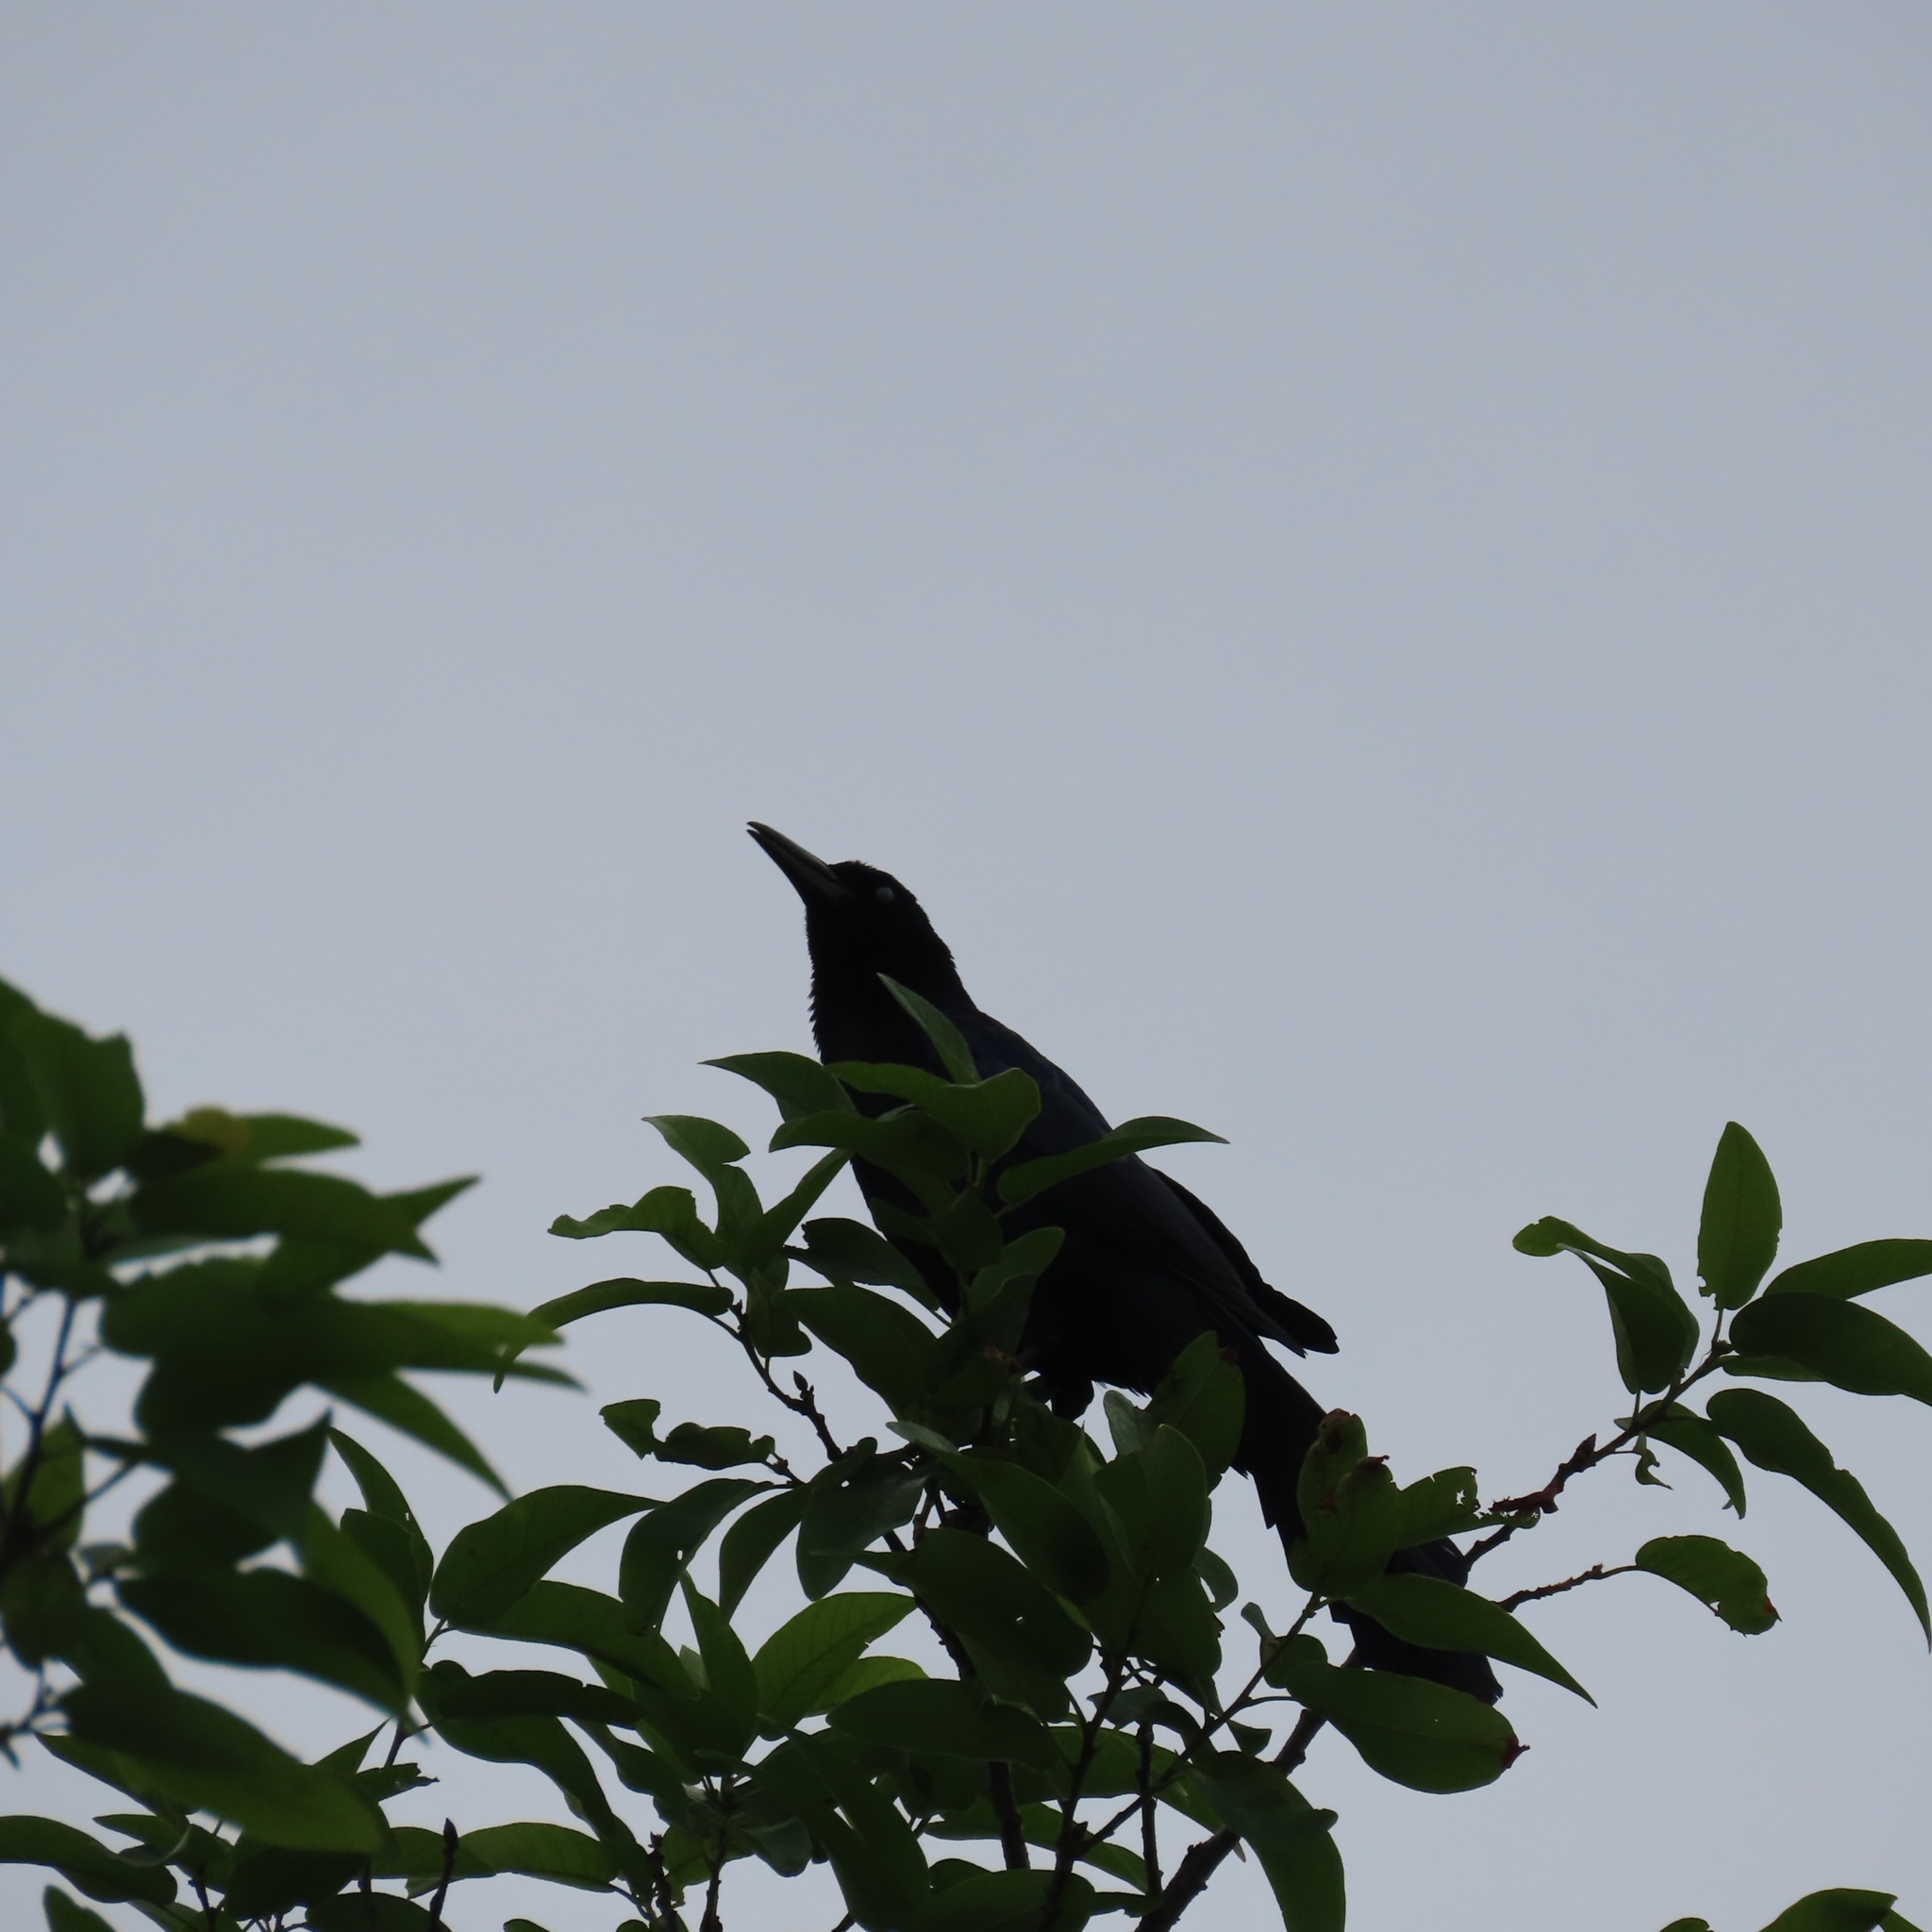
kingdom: Animalia
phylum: Chordata
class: Aves
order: Passeriformes
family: Icteridae
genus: Quiscalus
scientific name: Quiscalus mexicanus
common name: Great-tailed grackle
